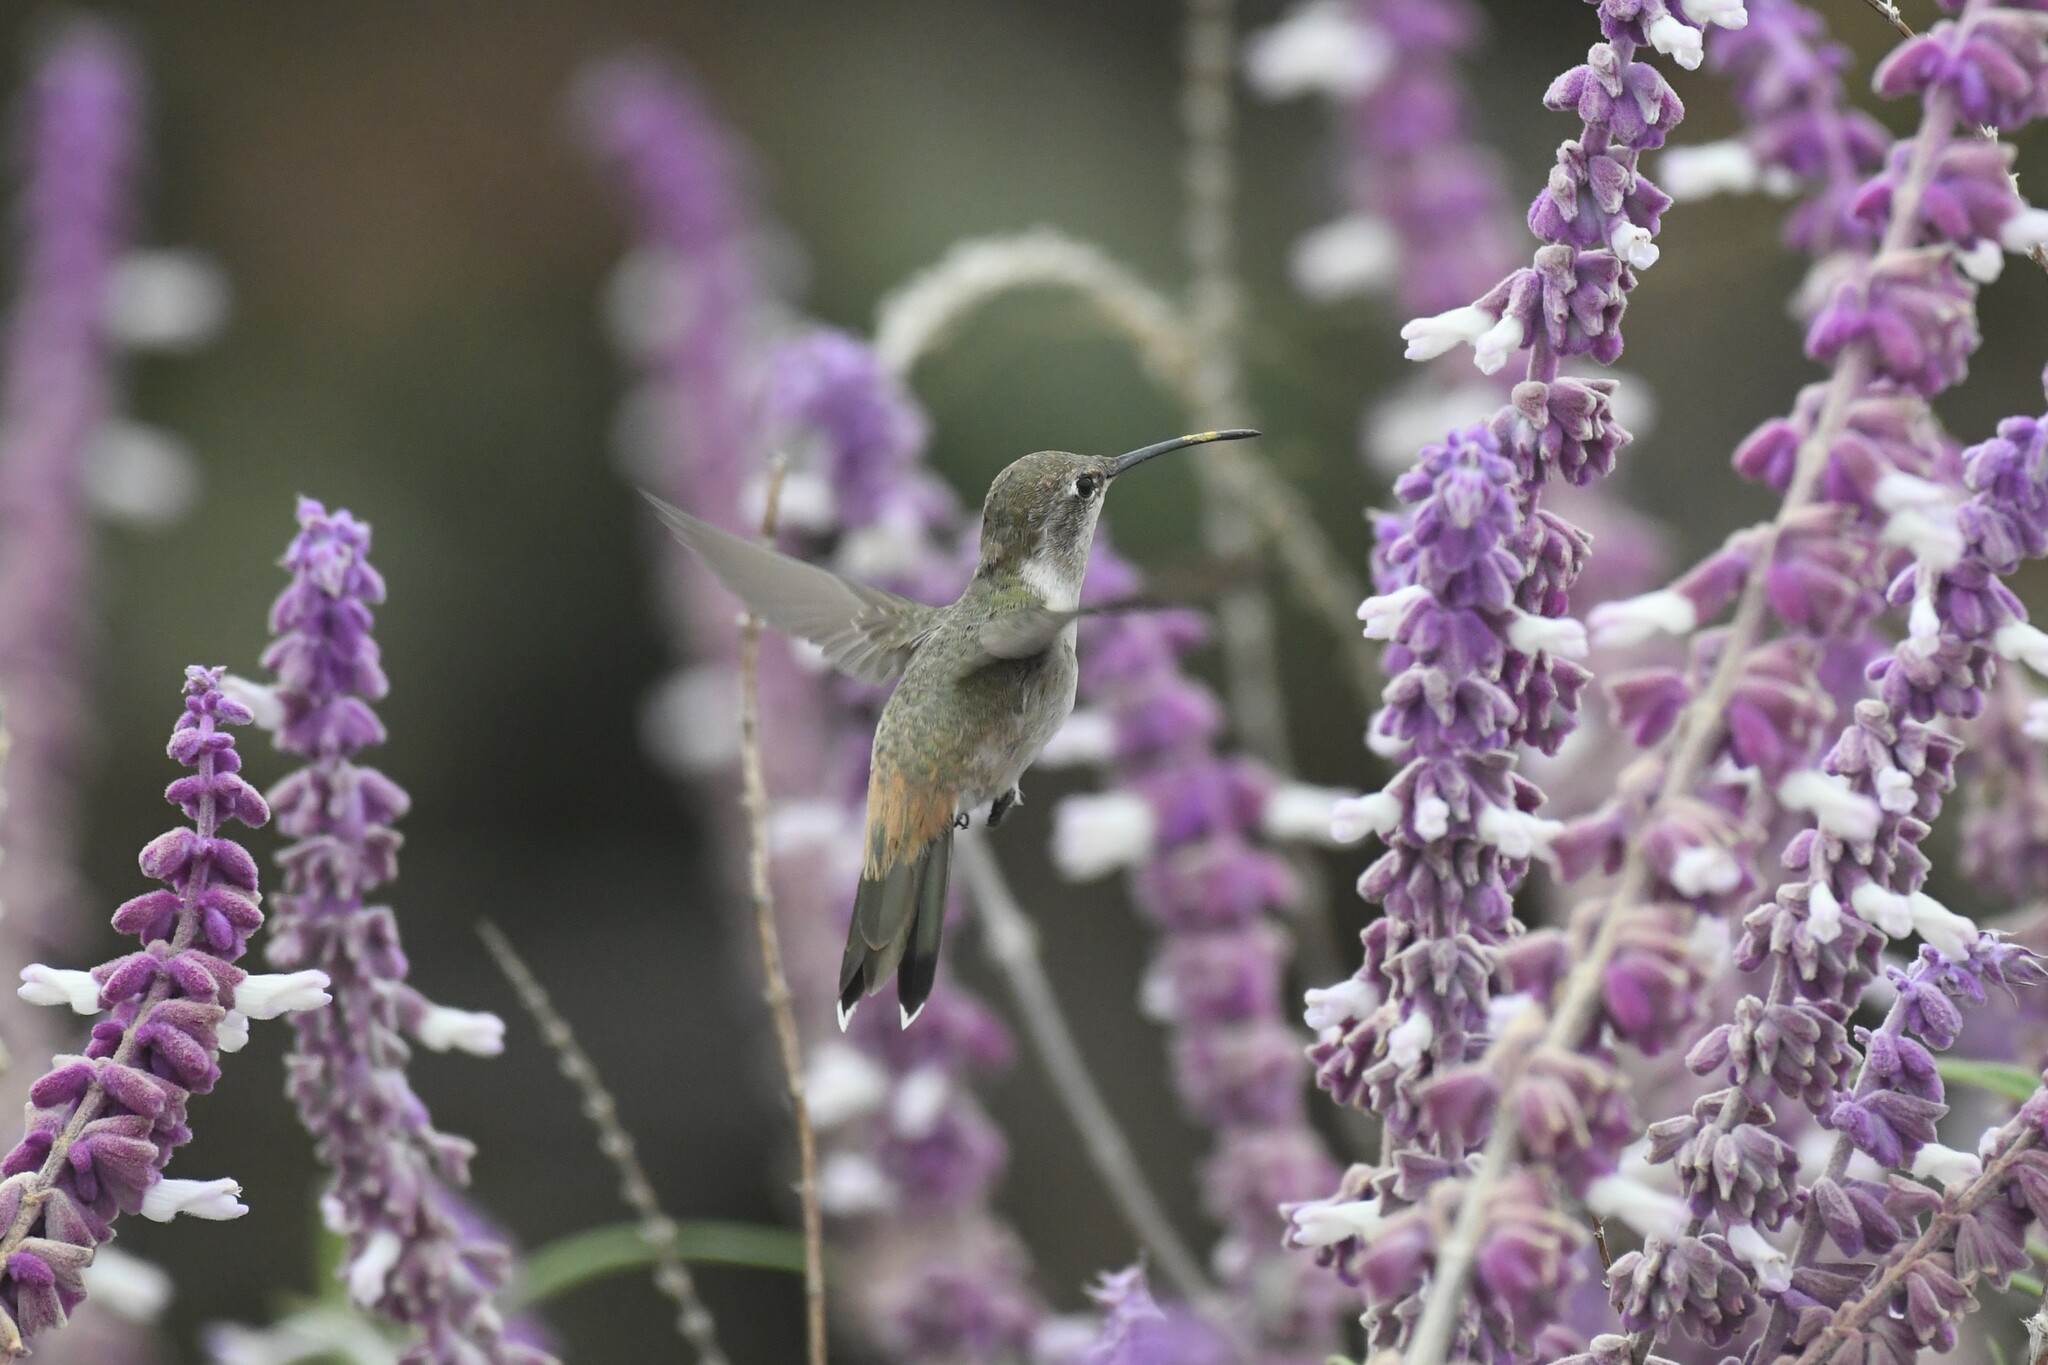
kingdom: Animalia
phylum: Chordata
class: Aves
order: Apodiformes
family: Trochilidae
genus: Rhodopis
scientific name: Rhodopis vesper
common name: Oasis hummingbird
